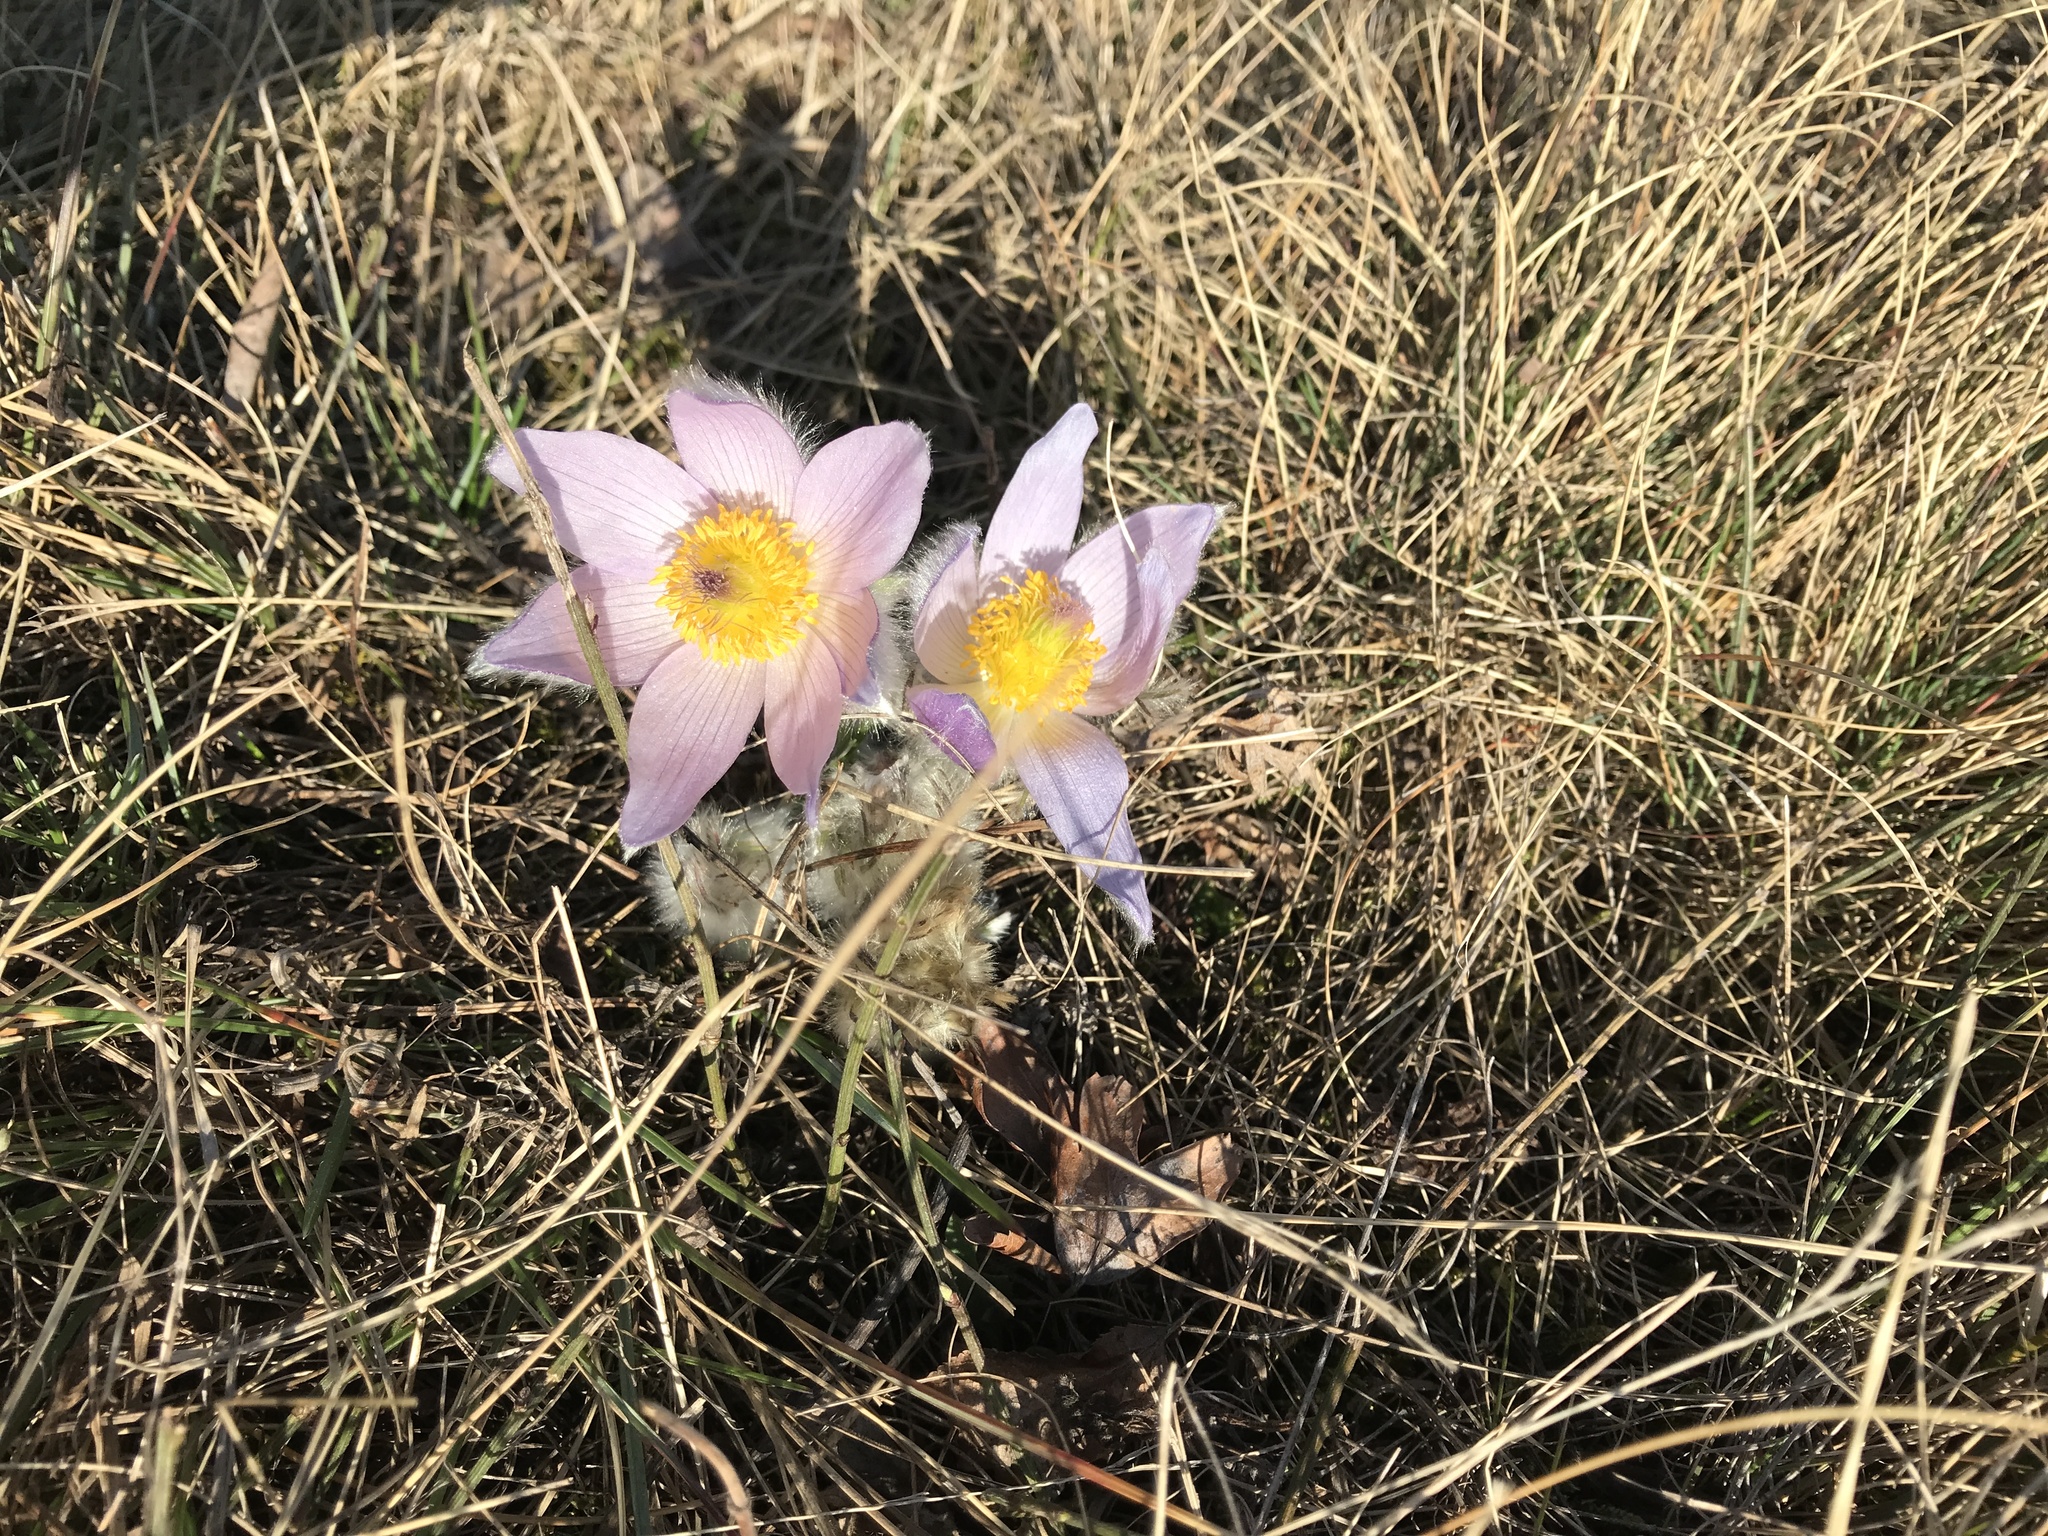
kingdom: Plantae
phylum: Tracheophyta
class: Magnoliopsida
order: Ranunculales
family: Ranunculaceae
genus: Pulsatilla
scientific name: Pulsatilla grandis
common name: Greater pasque flower
